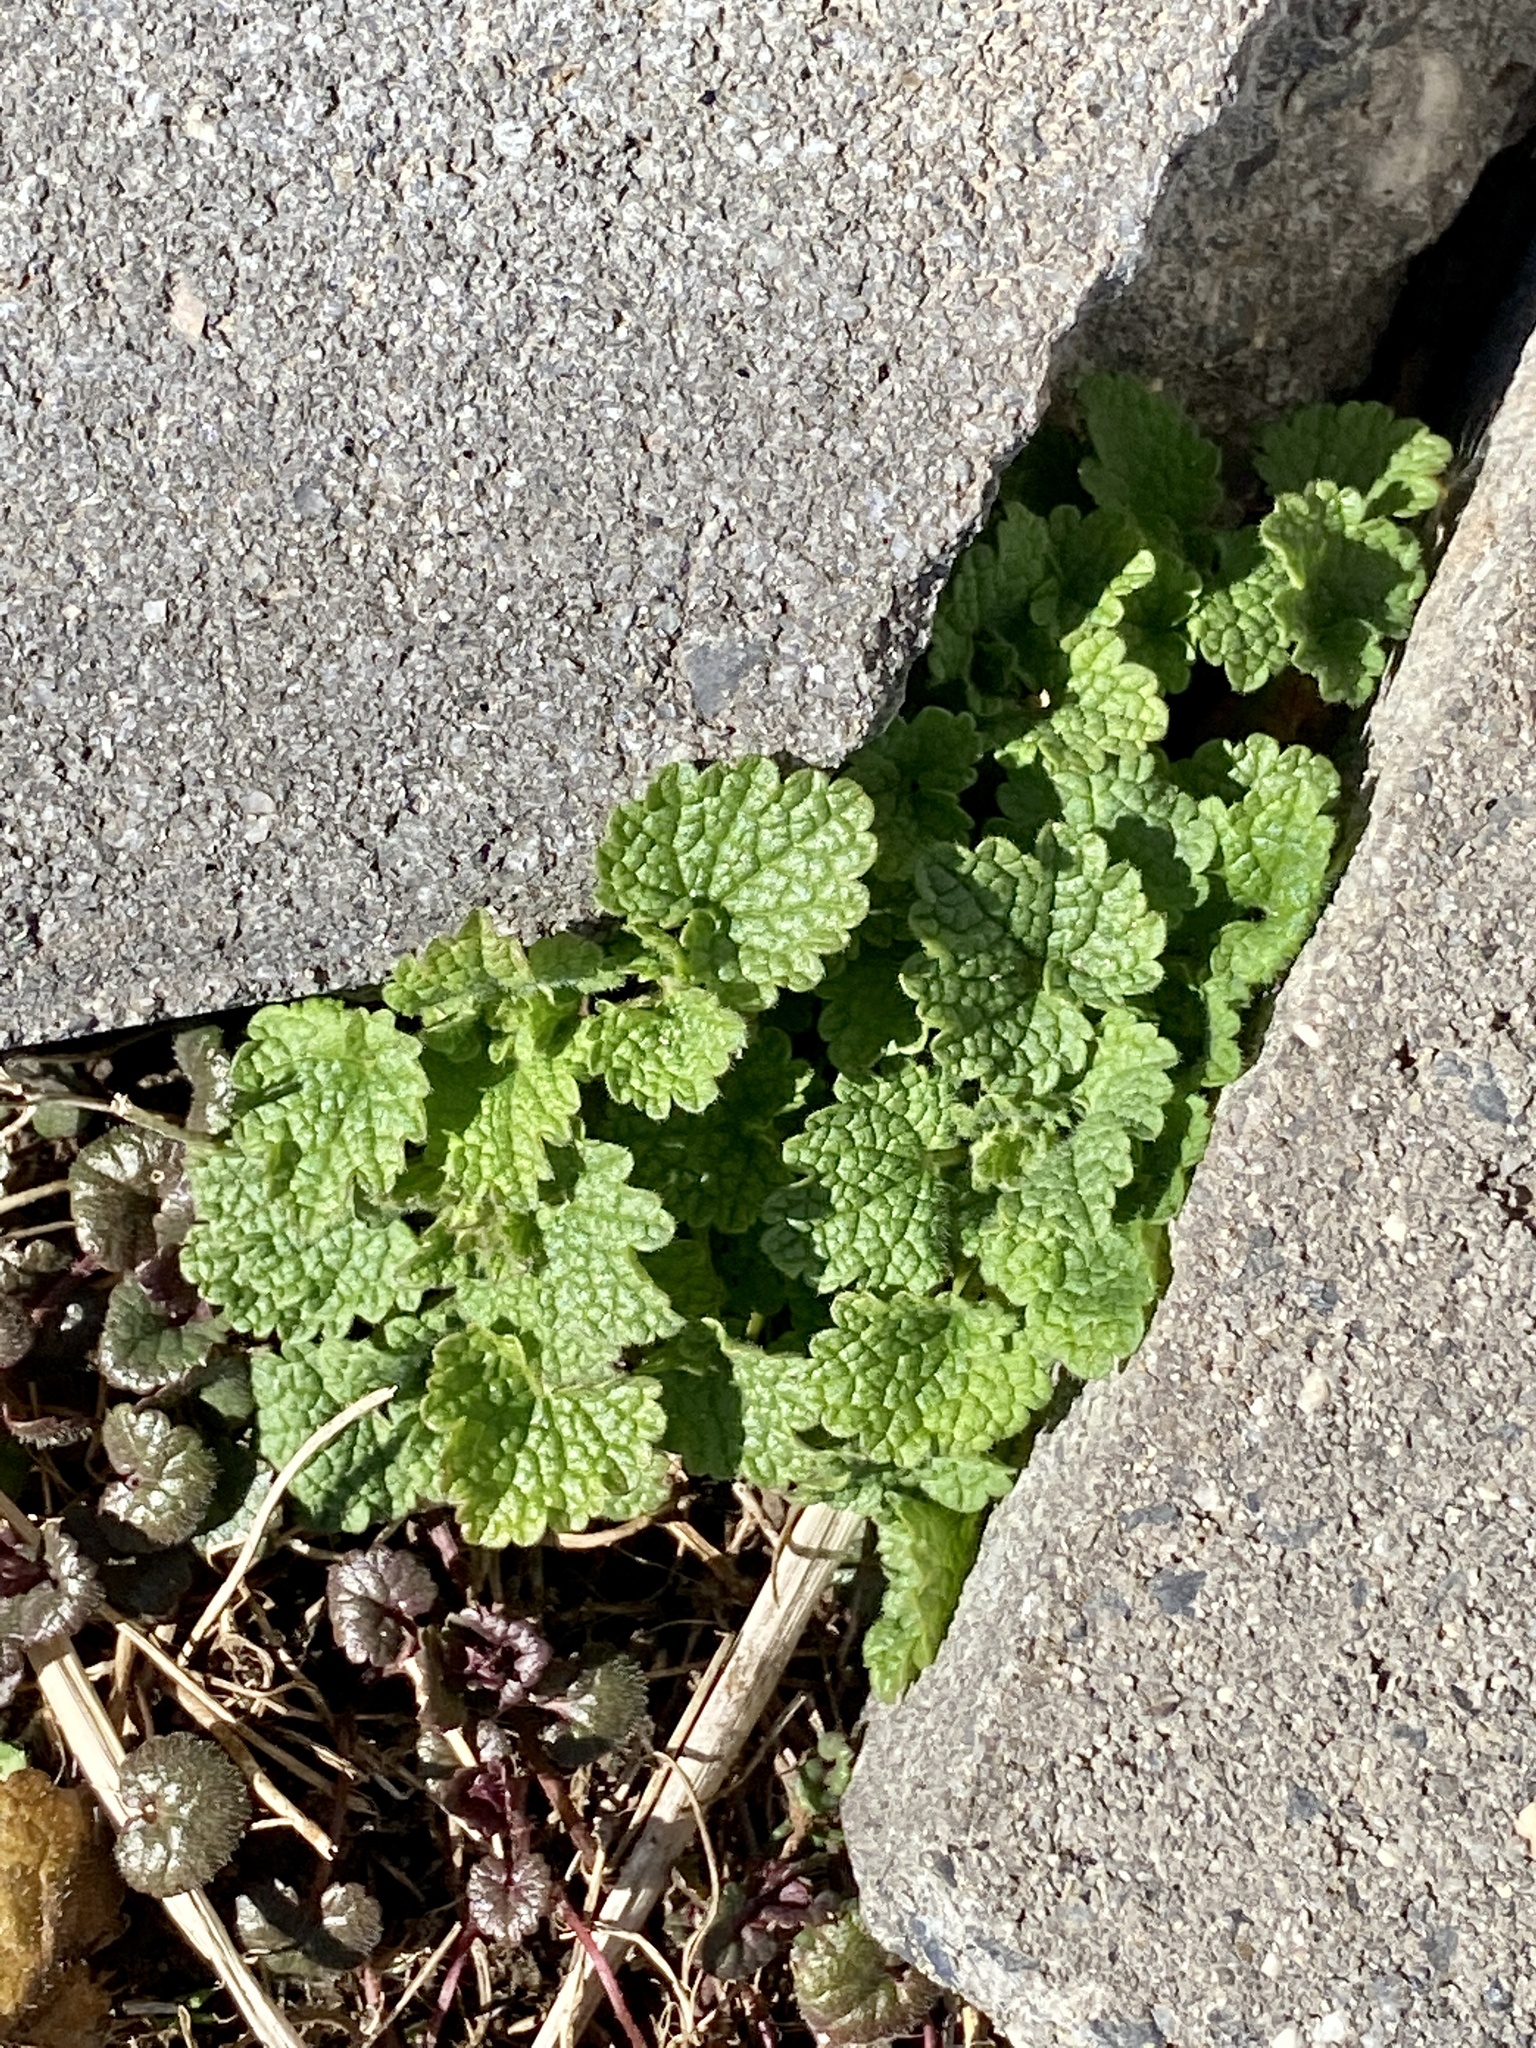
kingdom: Plantae
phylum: Tracheophyta
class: Magnoliopsida
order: Lamiales
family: Lamiaceae
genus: Lamium
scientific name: Lamium purpureum
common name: Red dead-nettle
